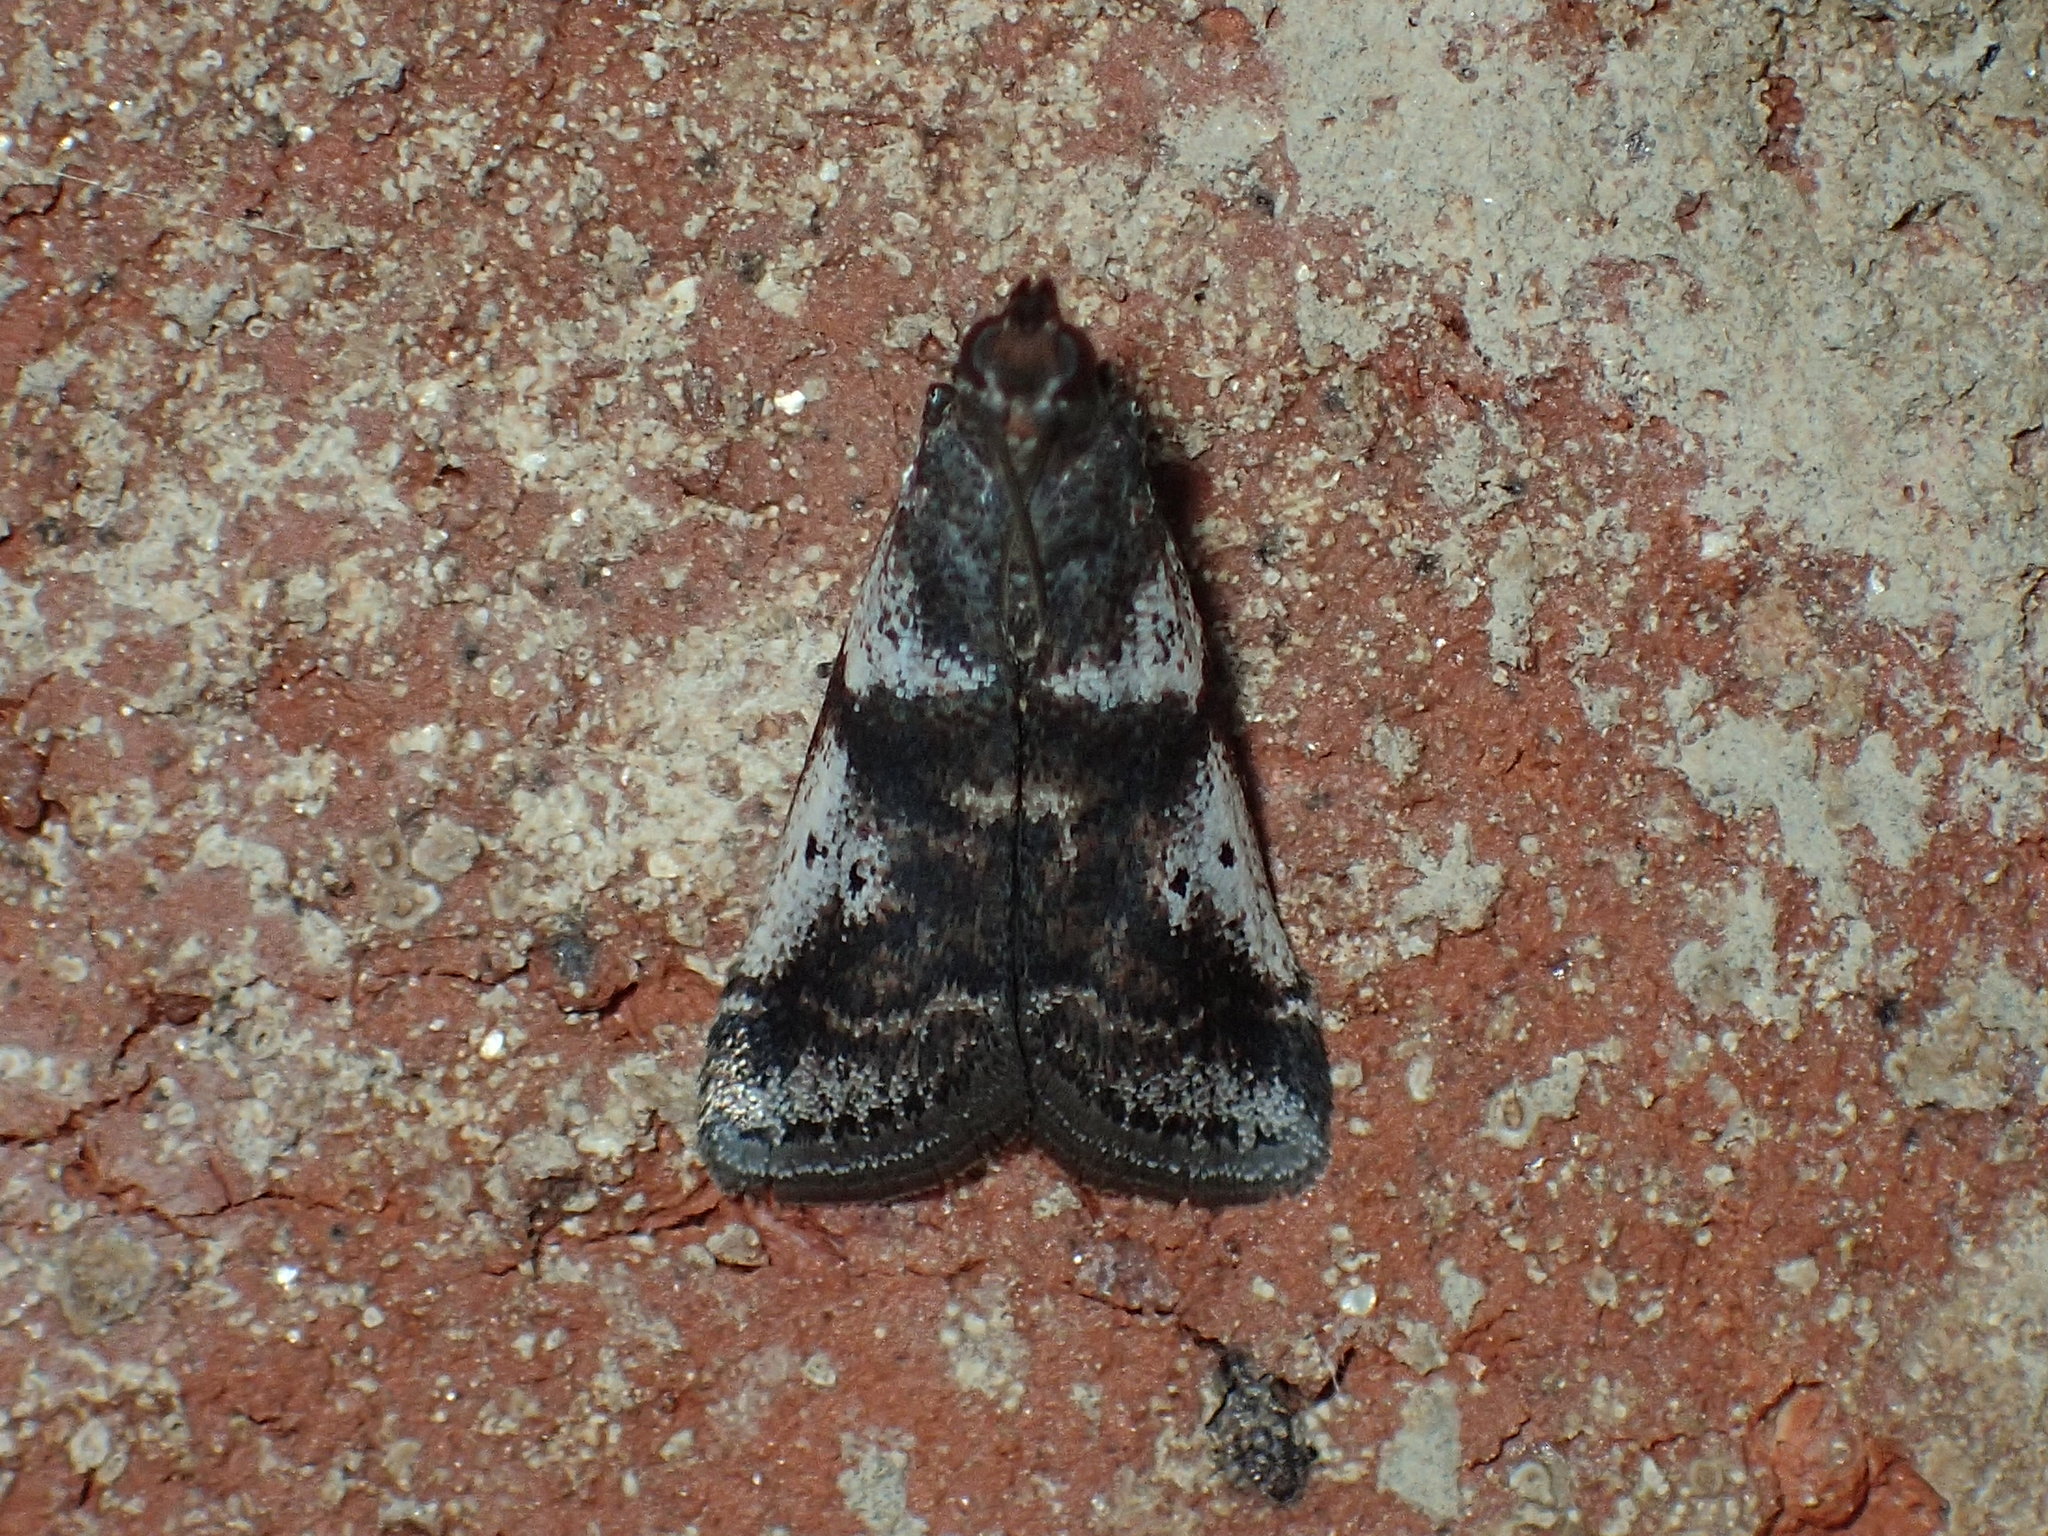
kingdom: Animalia
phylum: Arthropoda
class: Insecta
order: Lepidoptera
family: Pyralidae
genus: Acrobasis
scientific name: Acrobasis vaccinii
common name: Cranberry fruitworm moth
